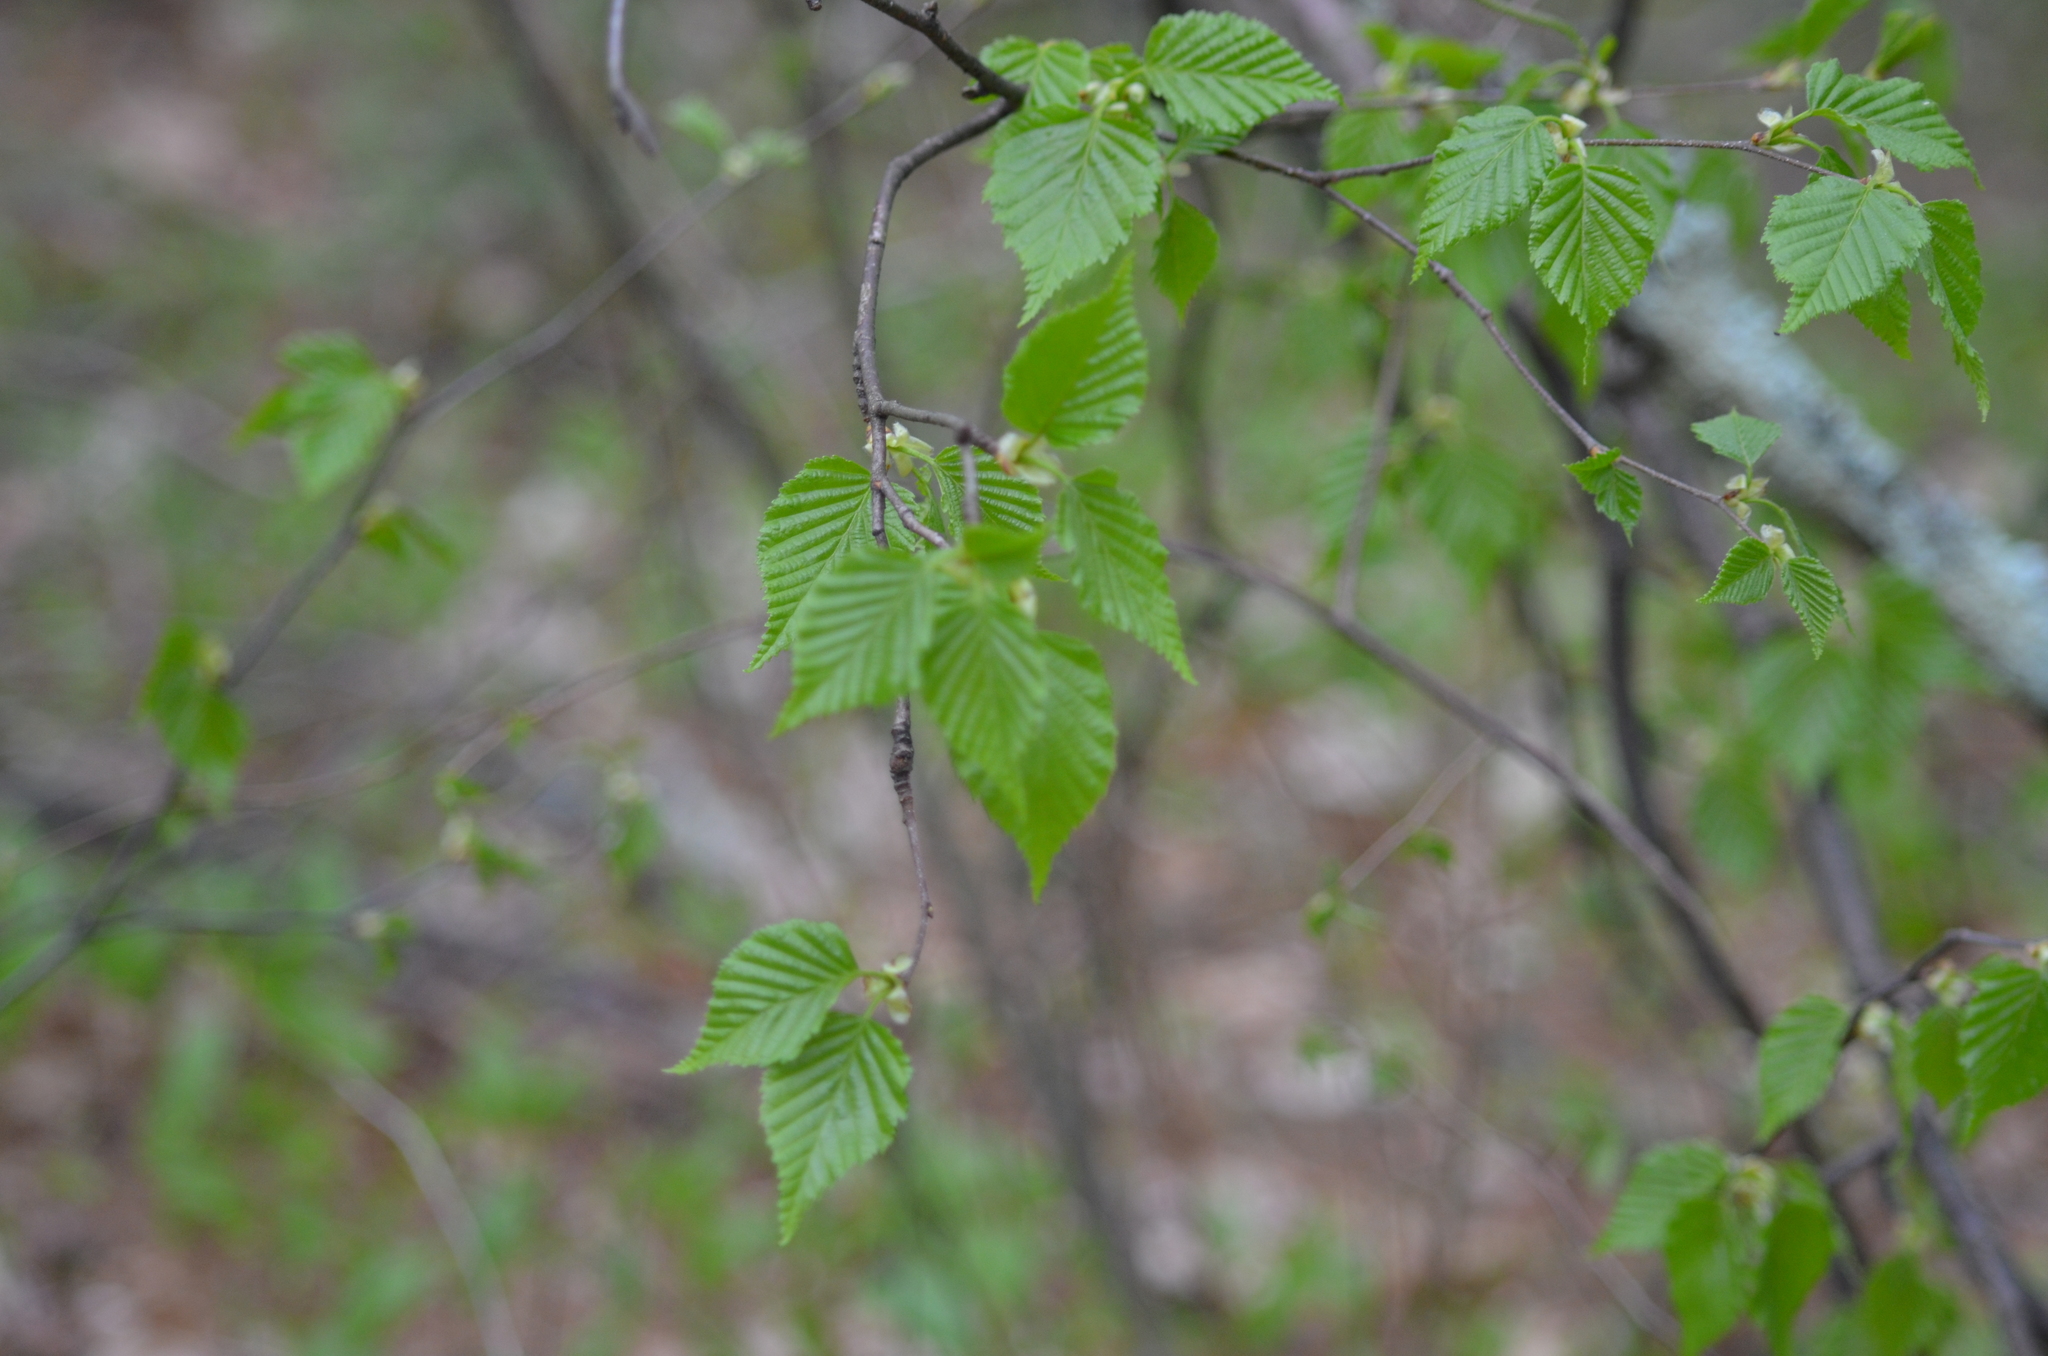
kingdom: Plantae
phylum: Tracheophyta
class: Magnoliopsida
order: Fagales
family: Betulaceae
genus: Betula
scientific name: Betula lenta
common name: Black birch
